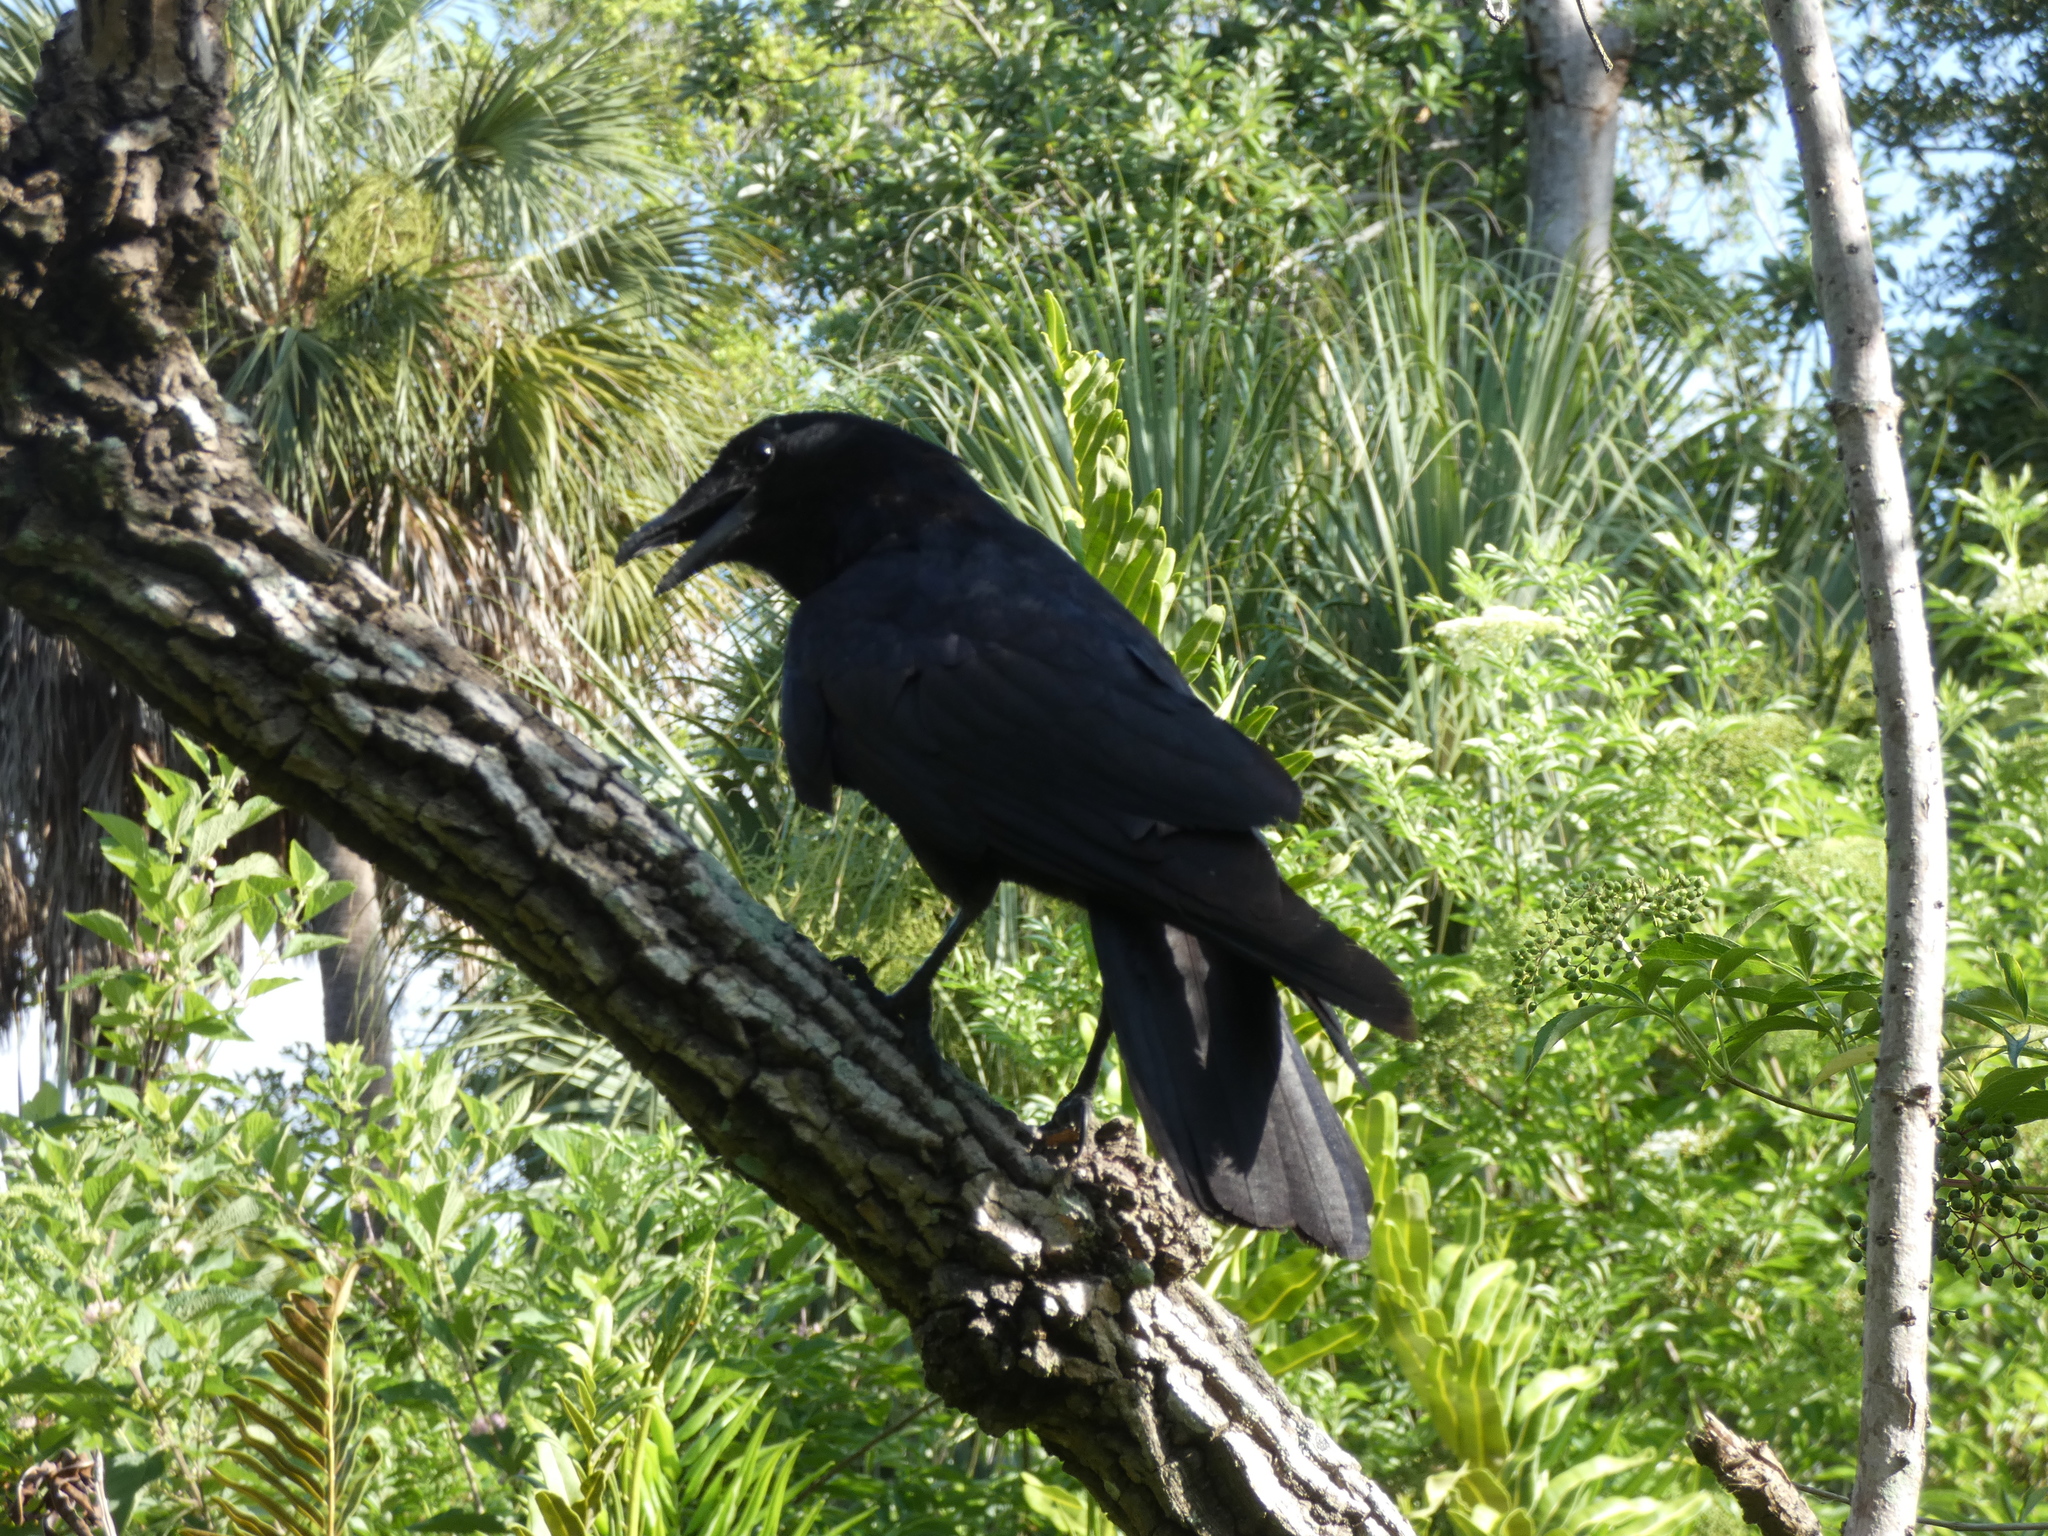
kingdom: Animalia
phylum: Chordata
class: Aves
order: Passeriformes
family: Corvidae
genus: Corvus
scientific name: Corvus ossifragus
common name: Fish crow
